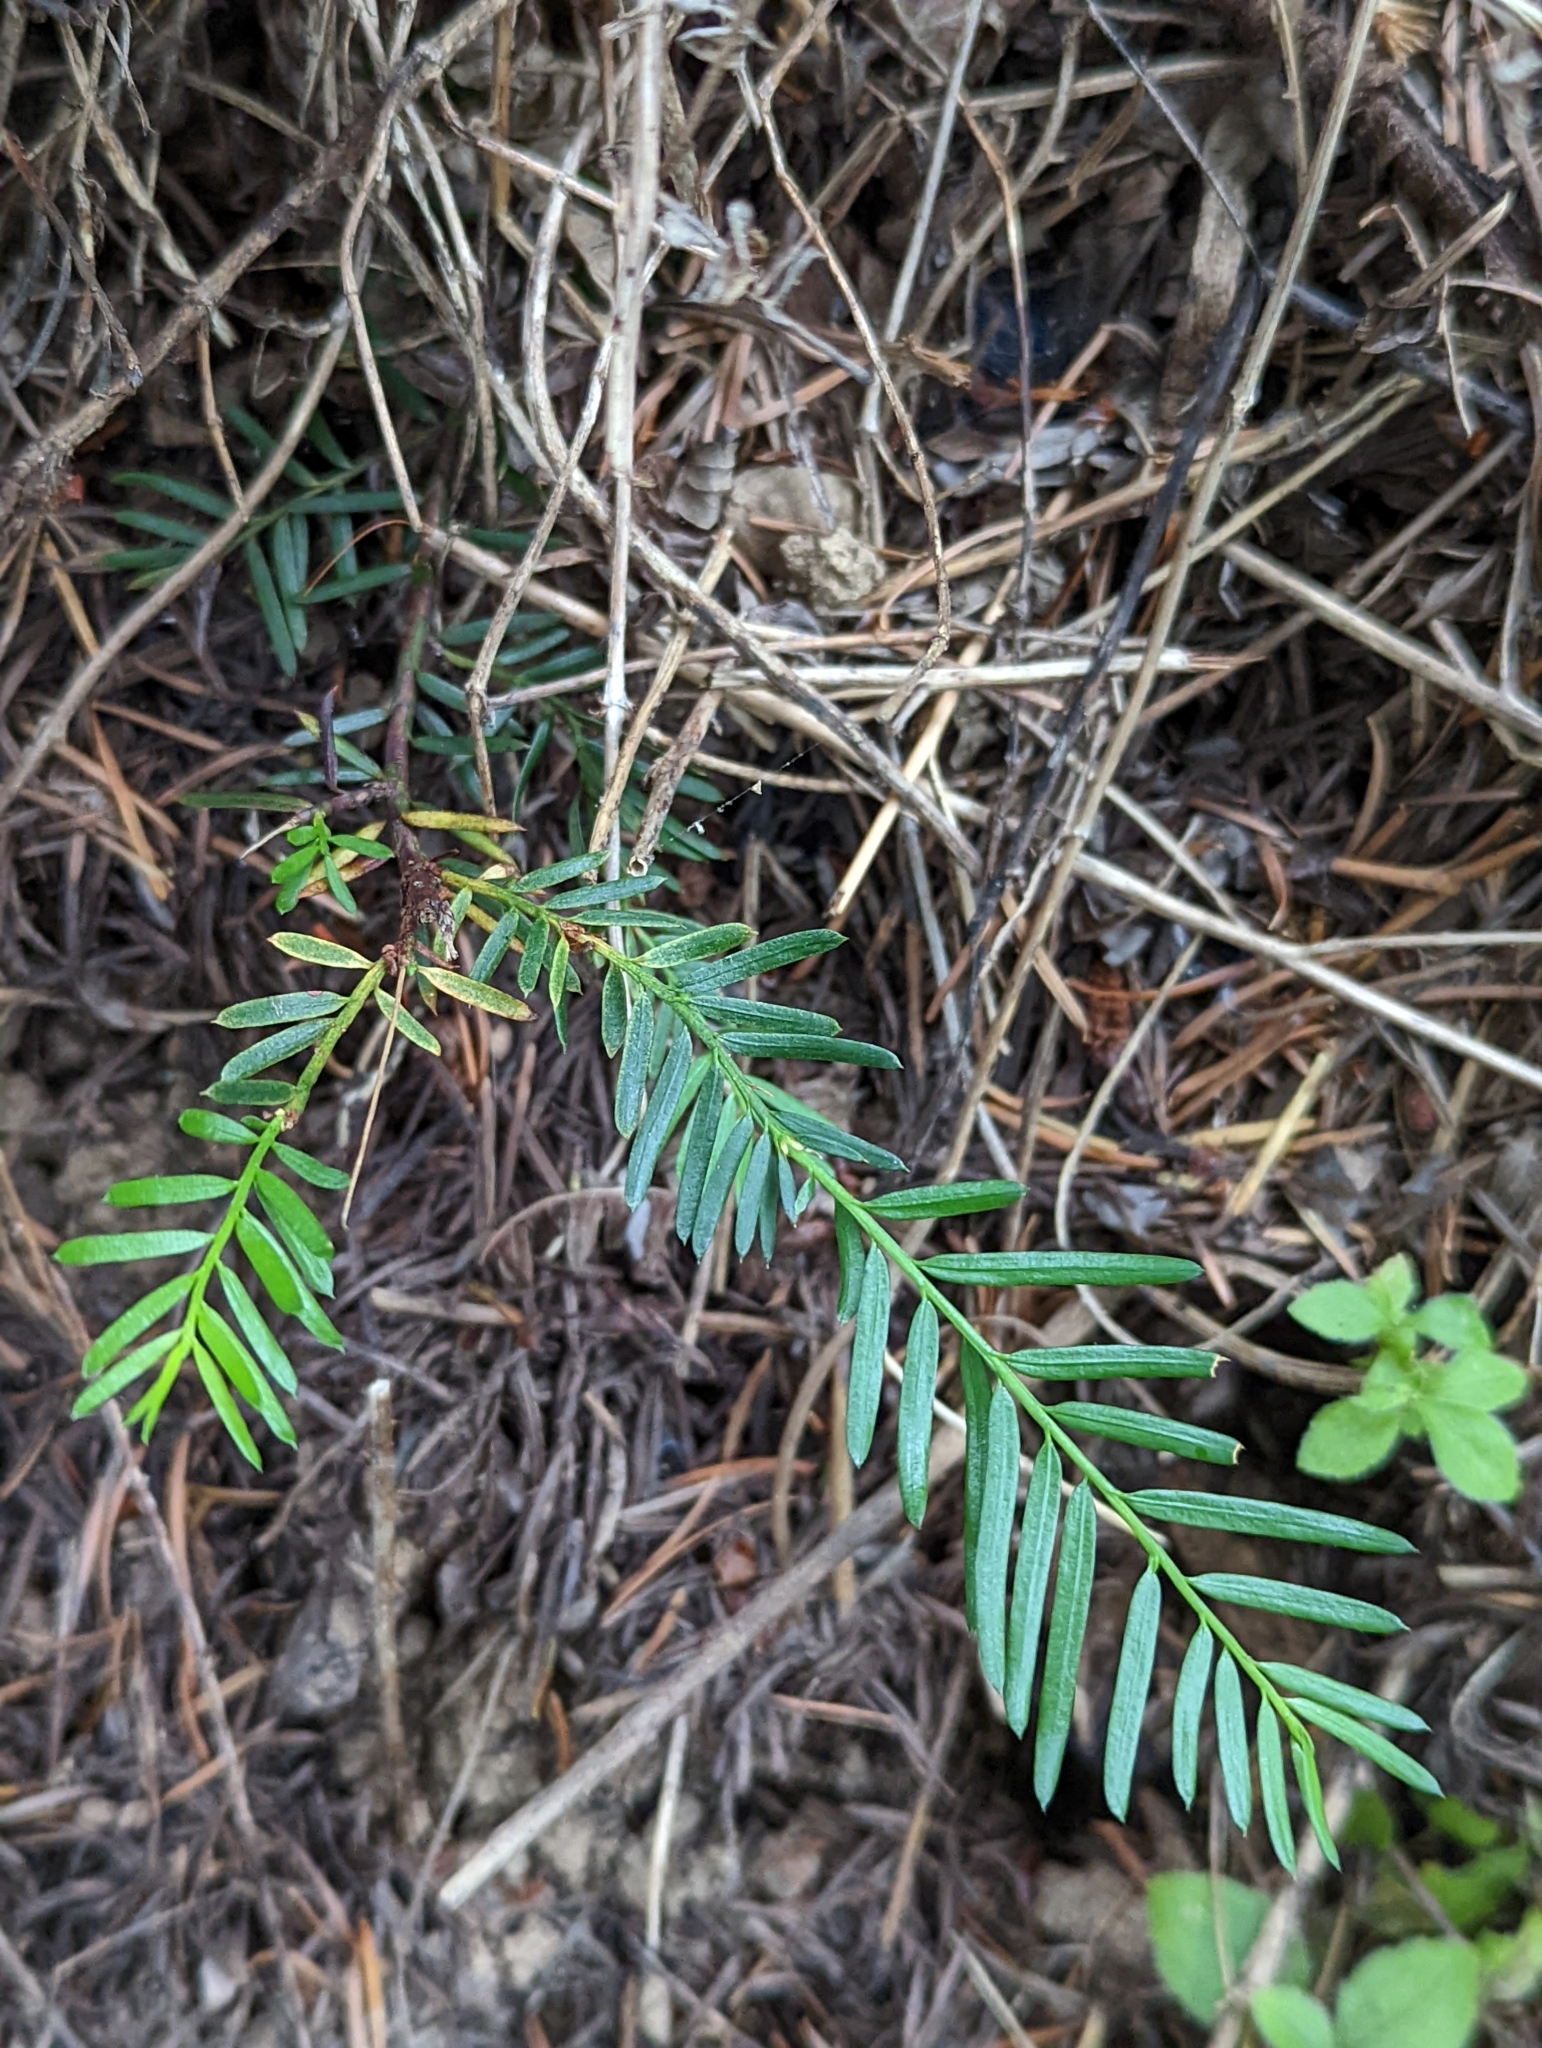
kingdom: Plantae
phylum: Tracheophyta
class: Pinopsida
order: Pinales
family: Taxaceae
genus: Taxus
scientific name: Taxus brevifolia
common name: Pacific yew
